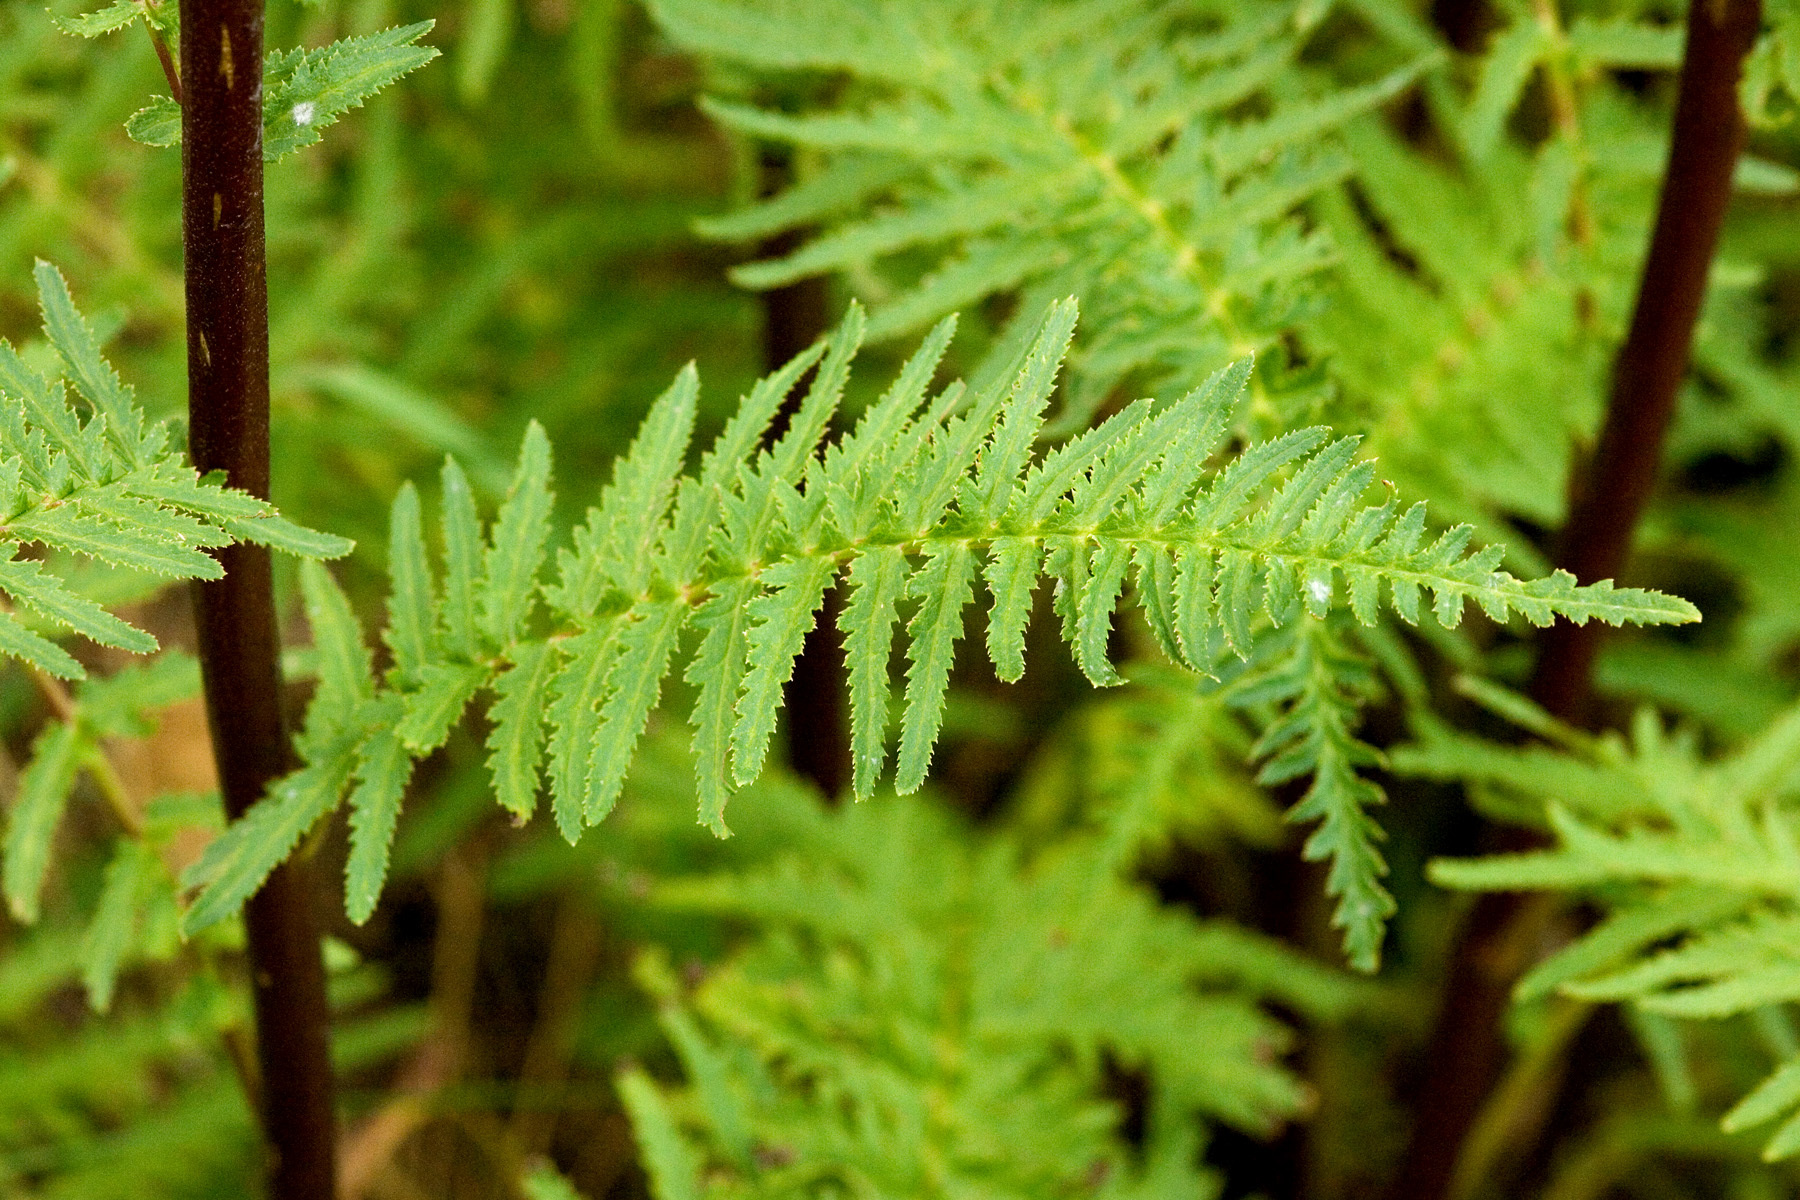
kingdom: Plantae
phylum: Tracheophyta
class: Magnoliopsida
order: Lamiales
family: Orobanchaceae
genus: Pedicularis
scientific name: Pedicularis procera
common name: Gray's lousewort
